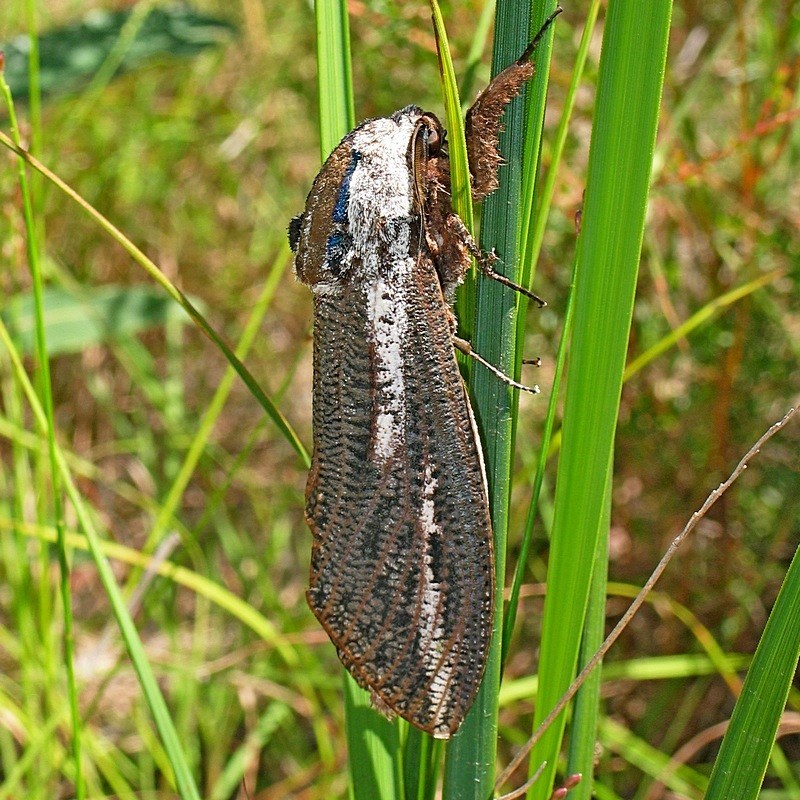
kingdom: Animalia
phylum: Arthropoda
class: Insecta
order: Lepidoptera
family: Cossidae
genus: Endoxyla
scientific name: Endoxyla encalypti
